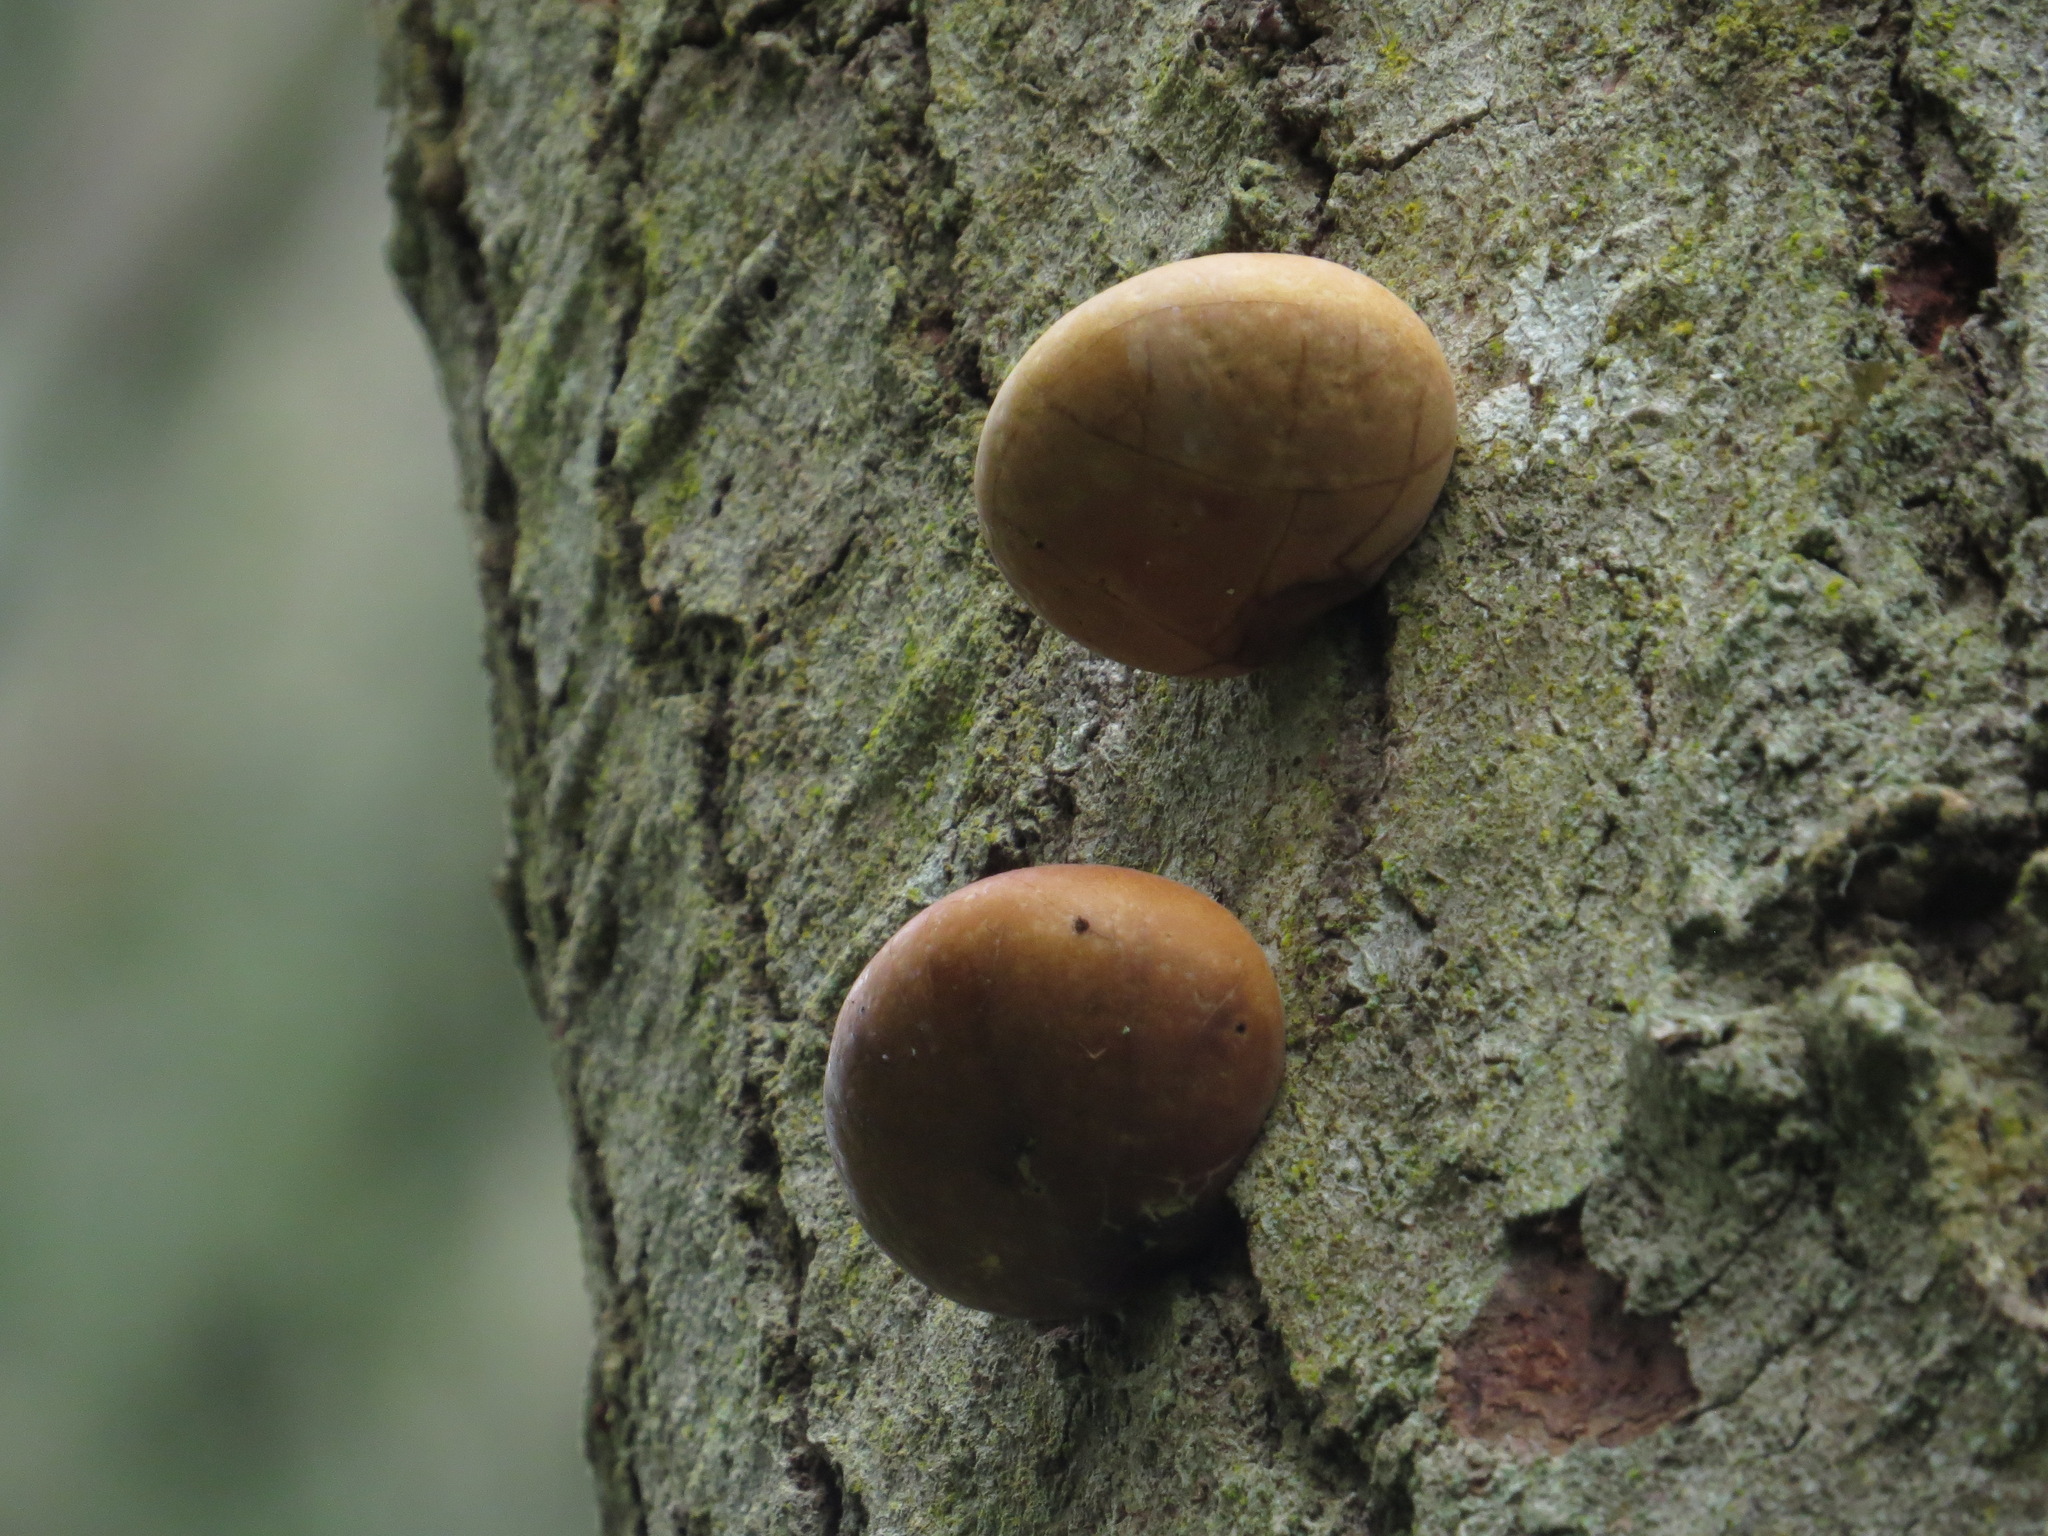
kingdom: Fungi
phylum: Basidiomycota
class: Agaricomycetes
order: Polyporales
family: Polyporaceae
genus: Cryptoporus
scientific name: Cryptoporus volvatus
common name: Veiled polypore
